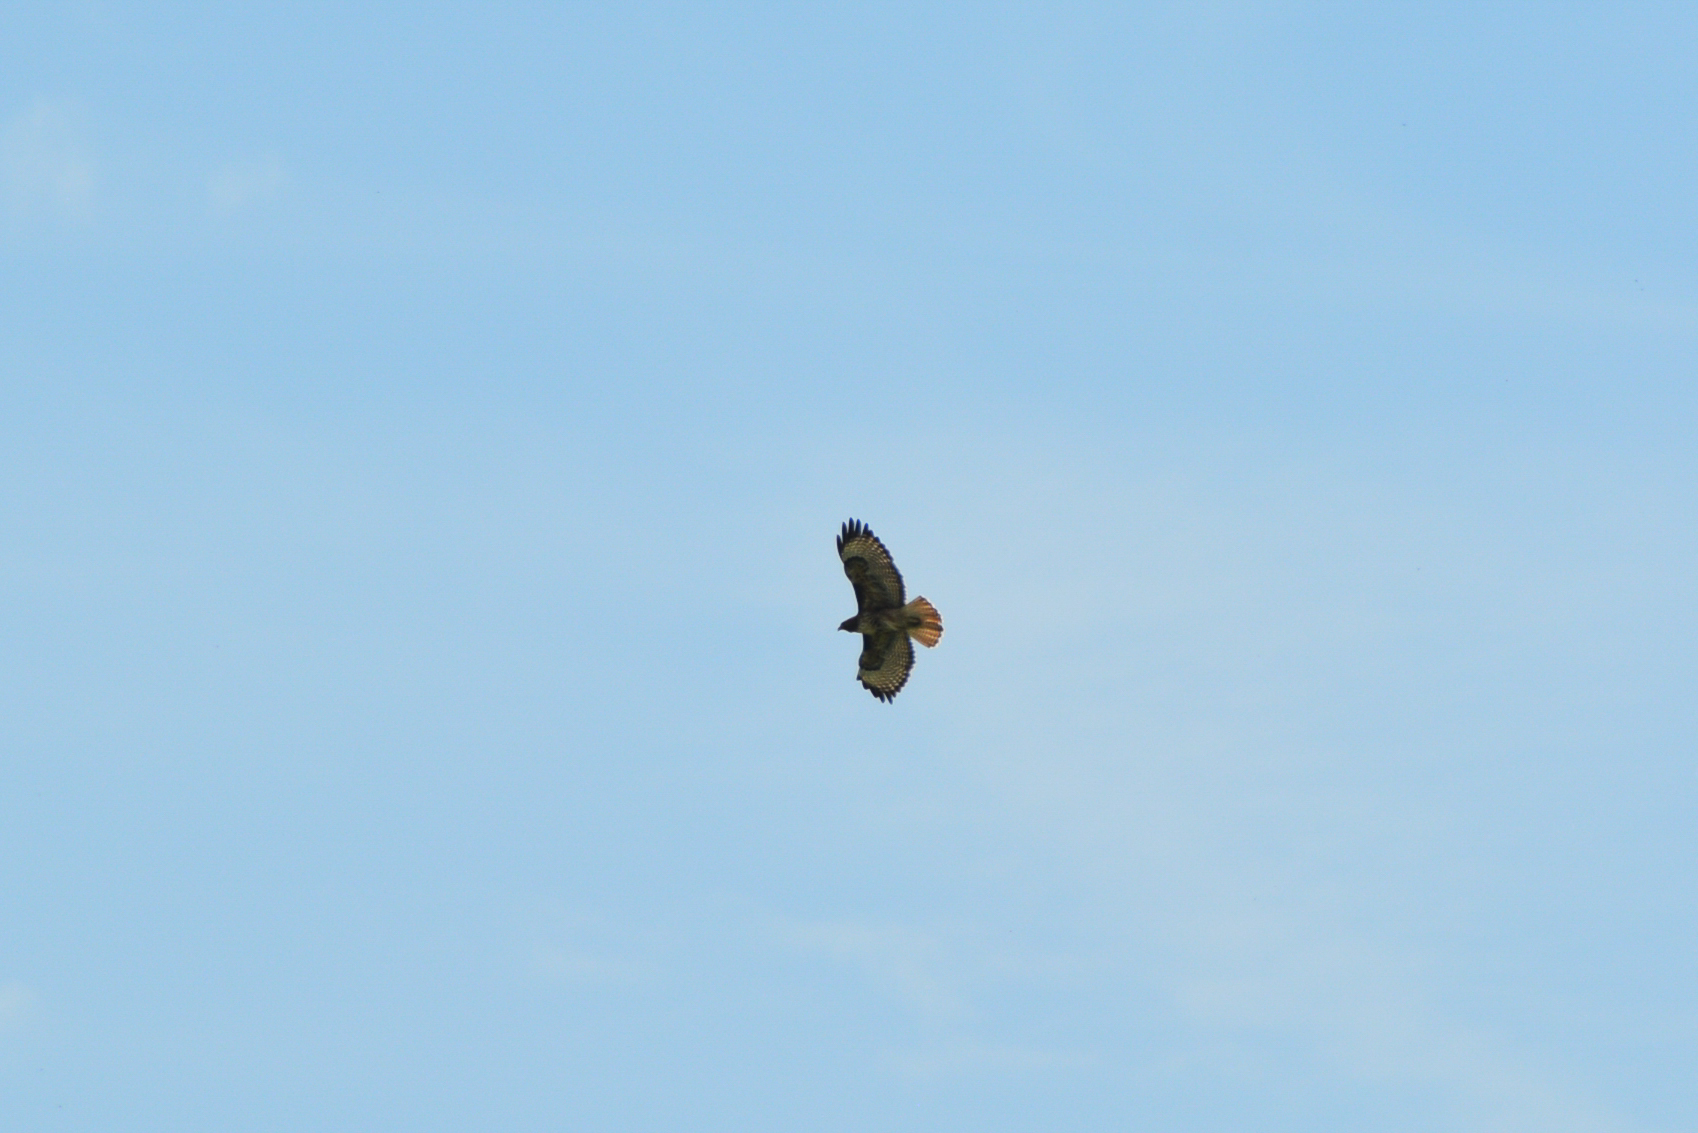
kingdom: Animalia
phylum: Chordata
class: Aves
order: Accipitriformes
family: Accipitridae
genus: Buteo
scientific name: Buteo jamaicensis
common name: Red-tailed hawk
